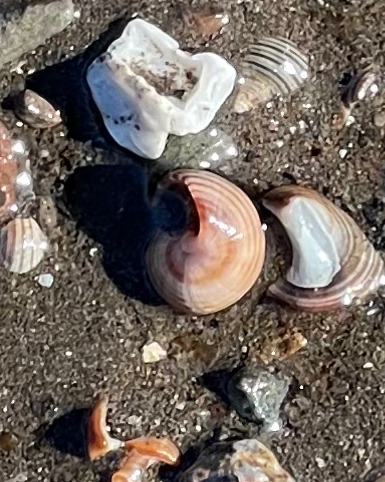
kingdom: Animalia
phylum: Mollusca
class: Gastropoda
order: Littorinimorpha
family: Littorinidae
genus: Littorina
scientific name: Littorina littorea
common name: Common periwinkle
